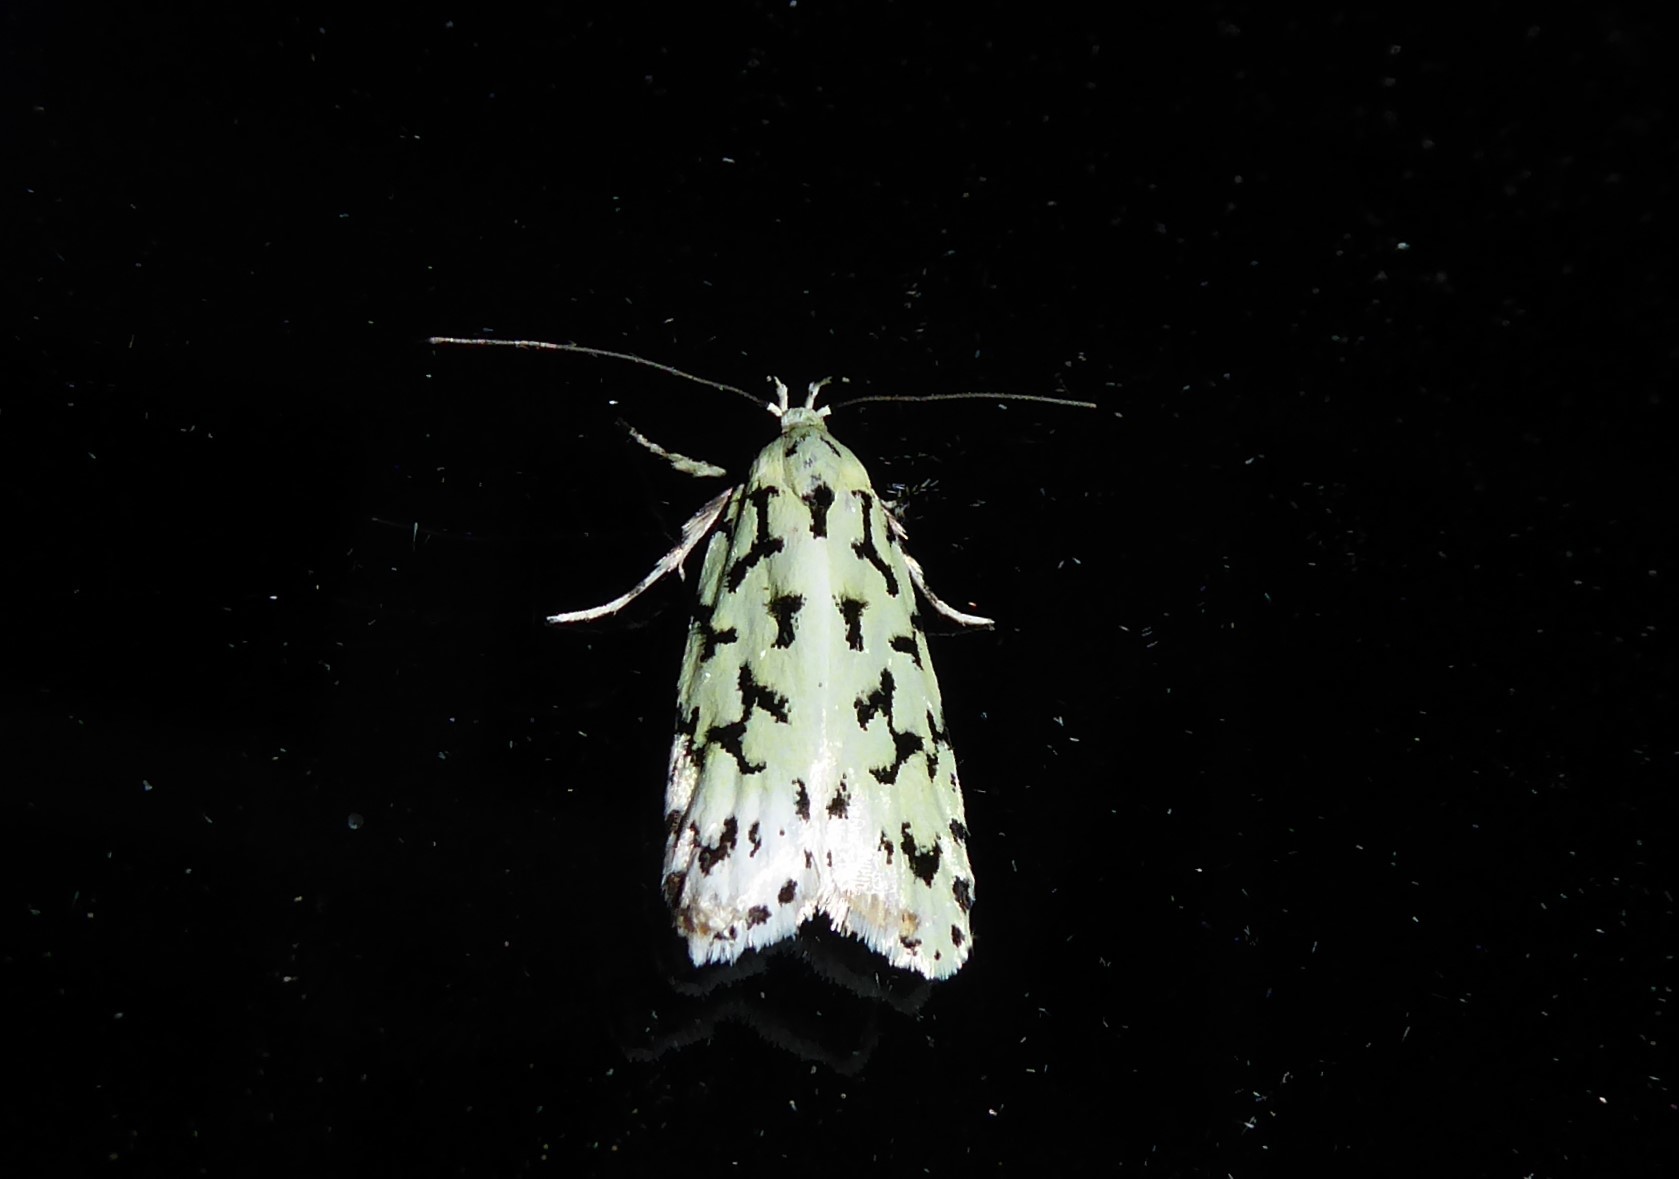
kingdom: Animalia
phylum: Arthropoda
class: Insecta
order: Lepidoptera
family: Oecophoridae
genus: Izatha
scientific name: Izatha huttoni
